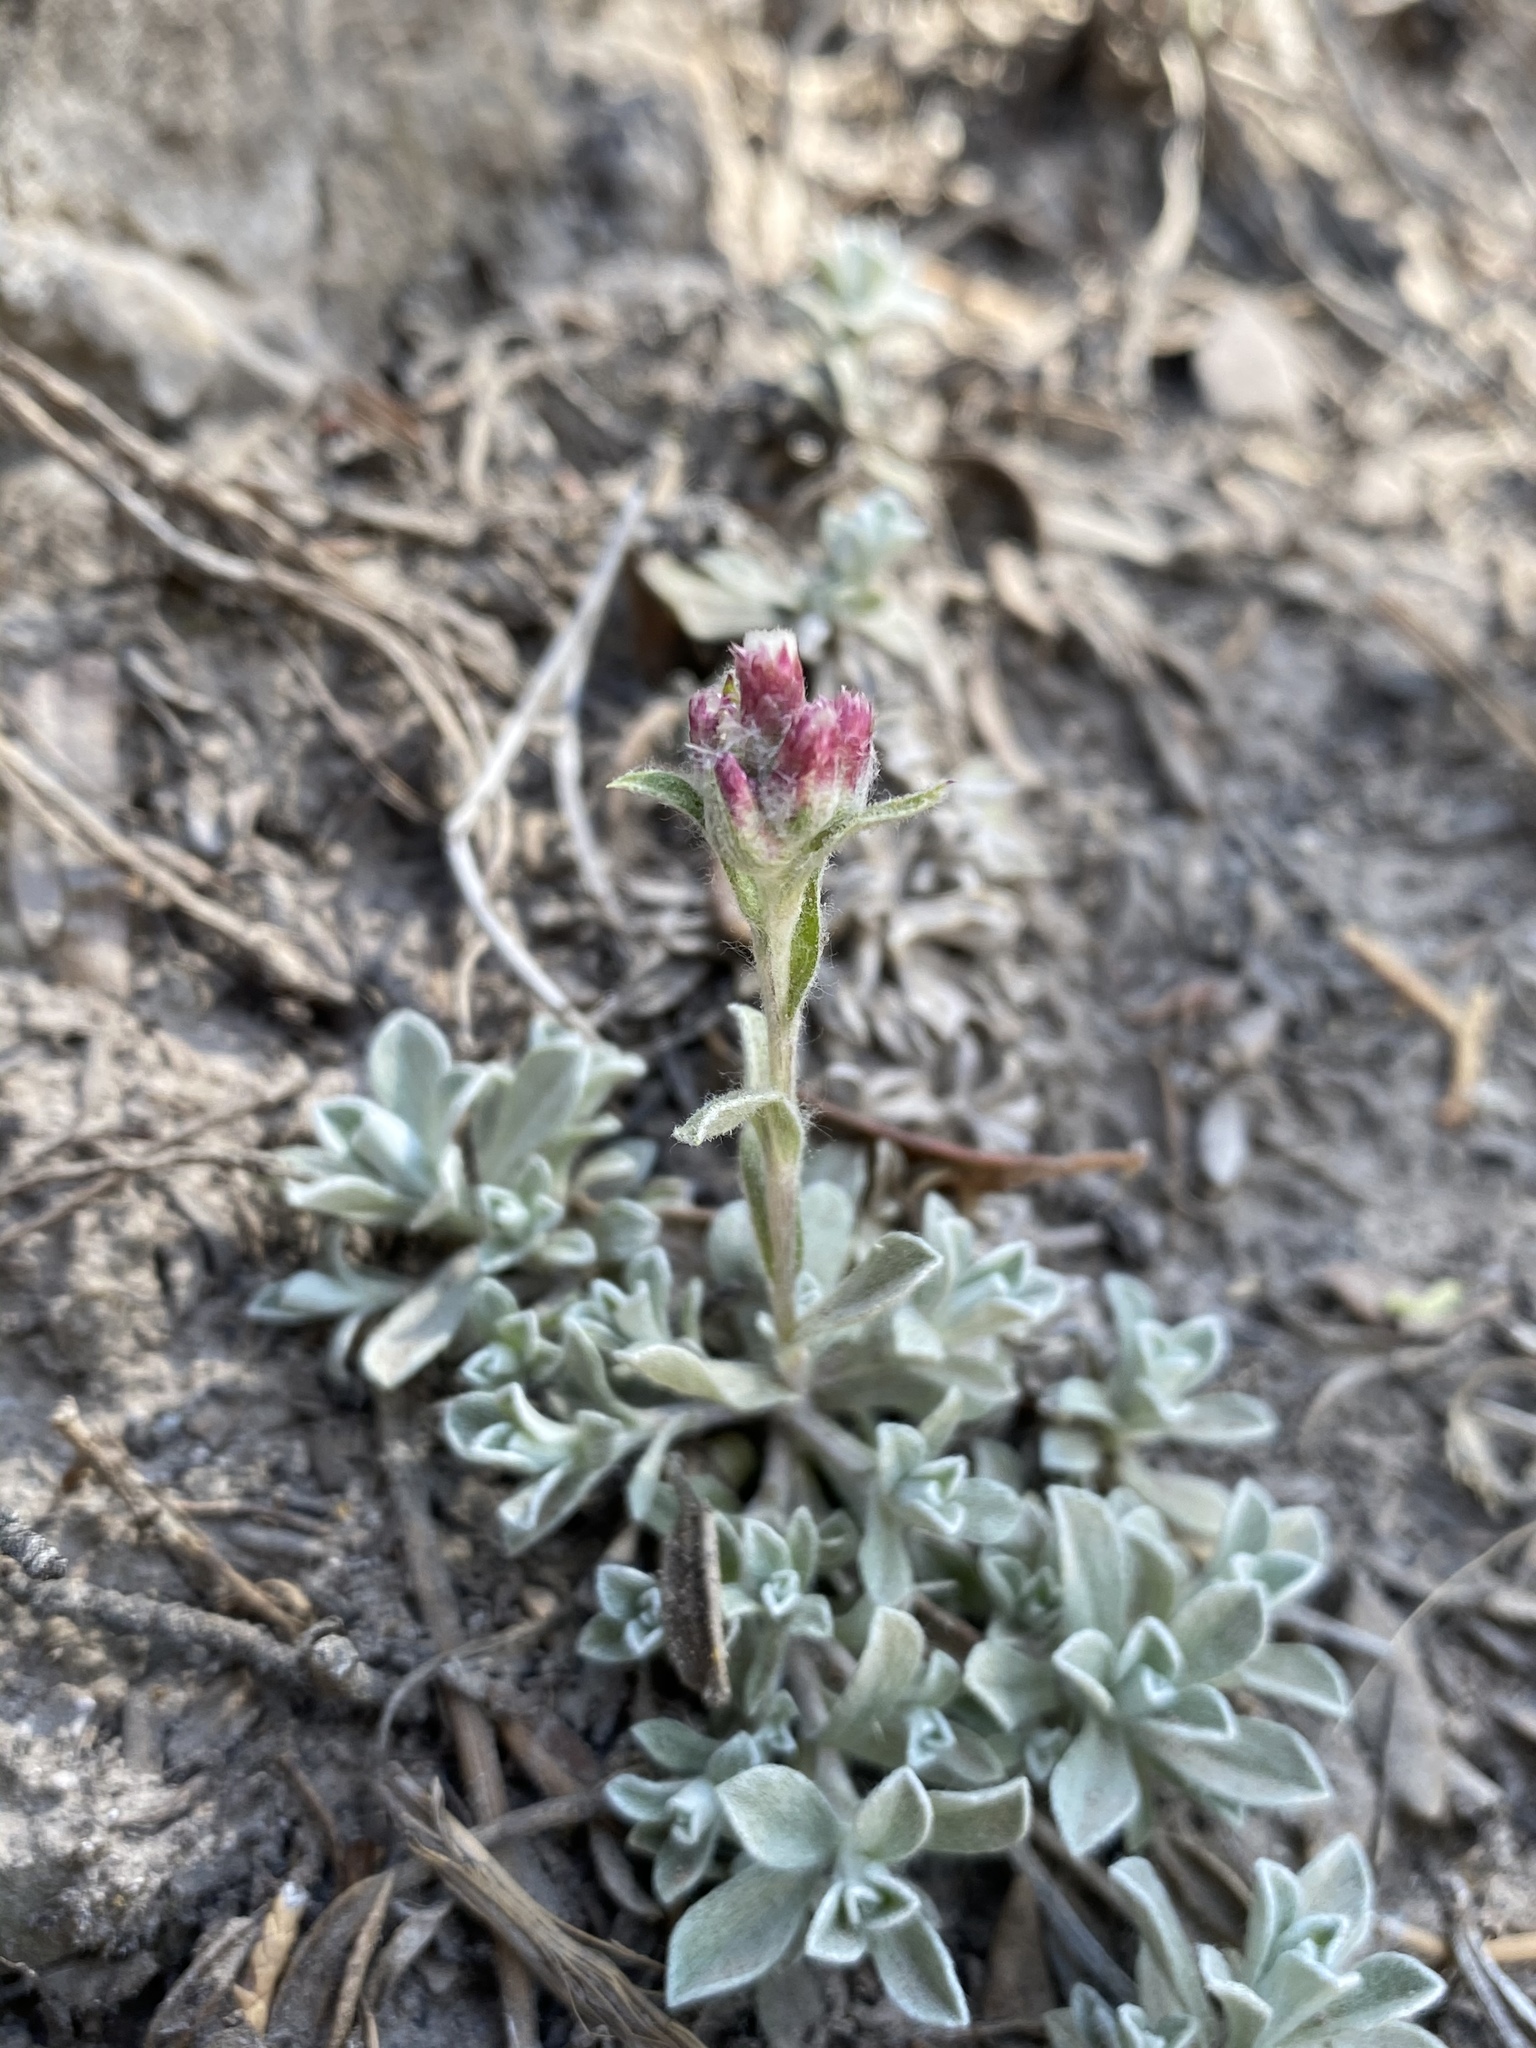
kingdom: Plantae
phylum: Tracheophyta
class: Magnoliopsida
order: Asterales
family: Asteraceae
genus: Antennaria
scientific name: Antennaria rosea
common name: Rosy pussytoes
